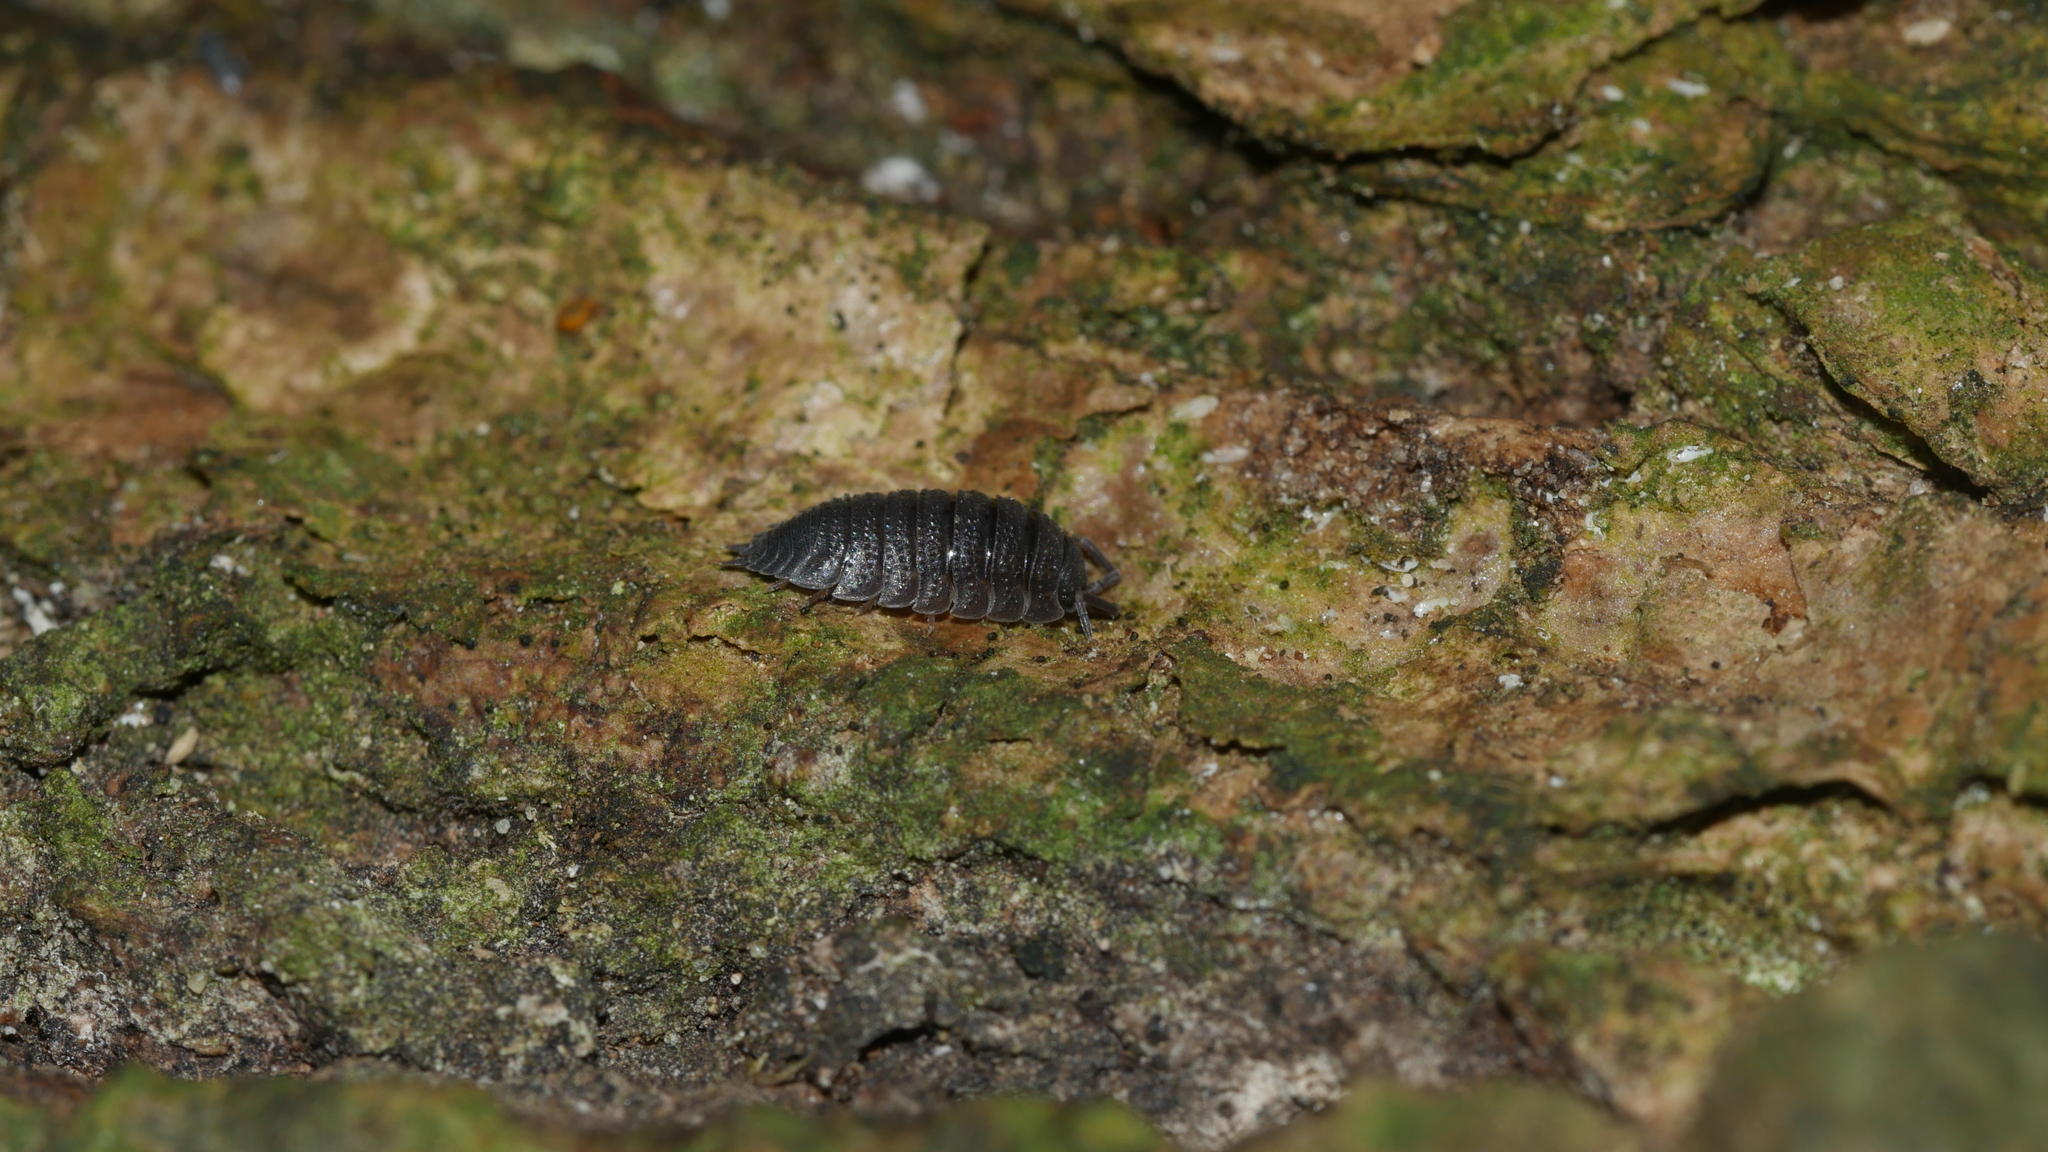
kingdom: Animalia
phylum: Arthropoda
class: Malacostraca
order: Isopoda
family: Porcellionidae
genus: Porcellio
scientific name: Porcellio scaber
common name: Common rough woodlouse
